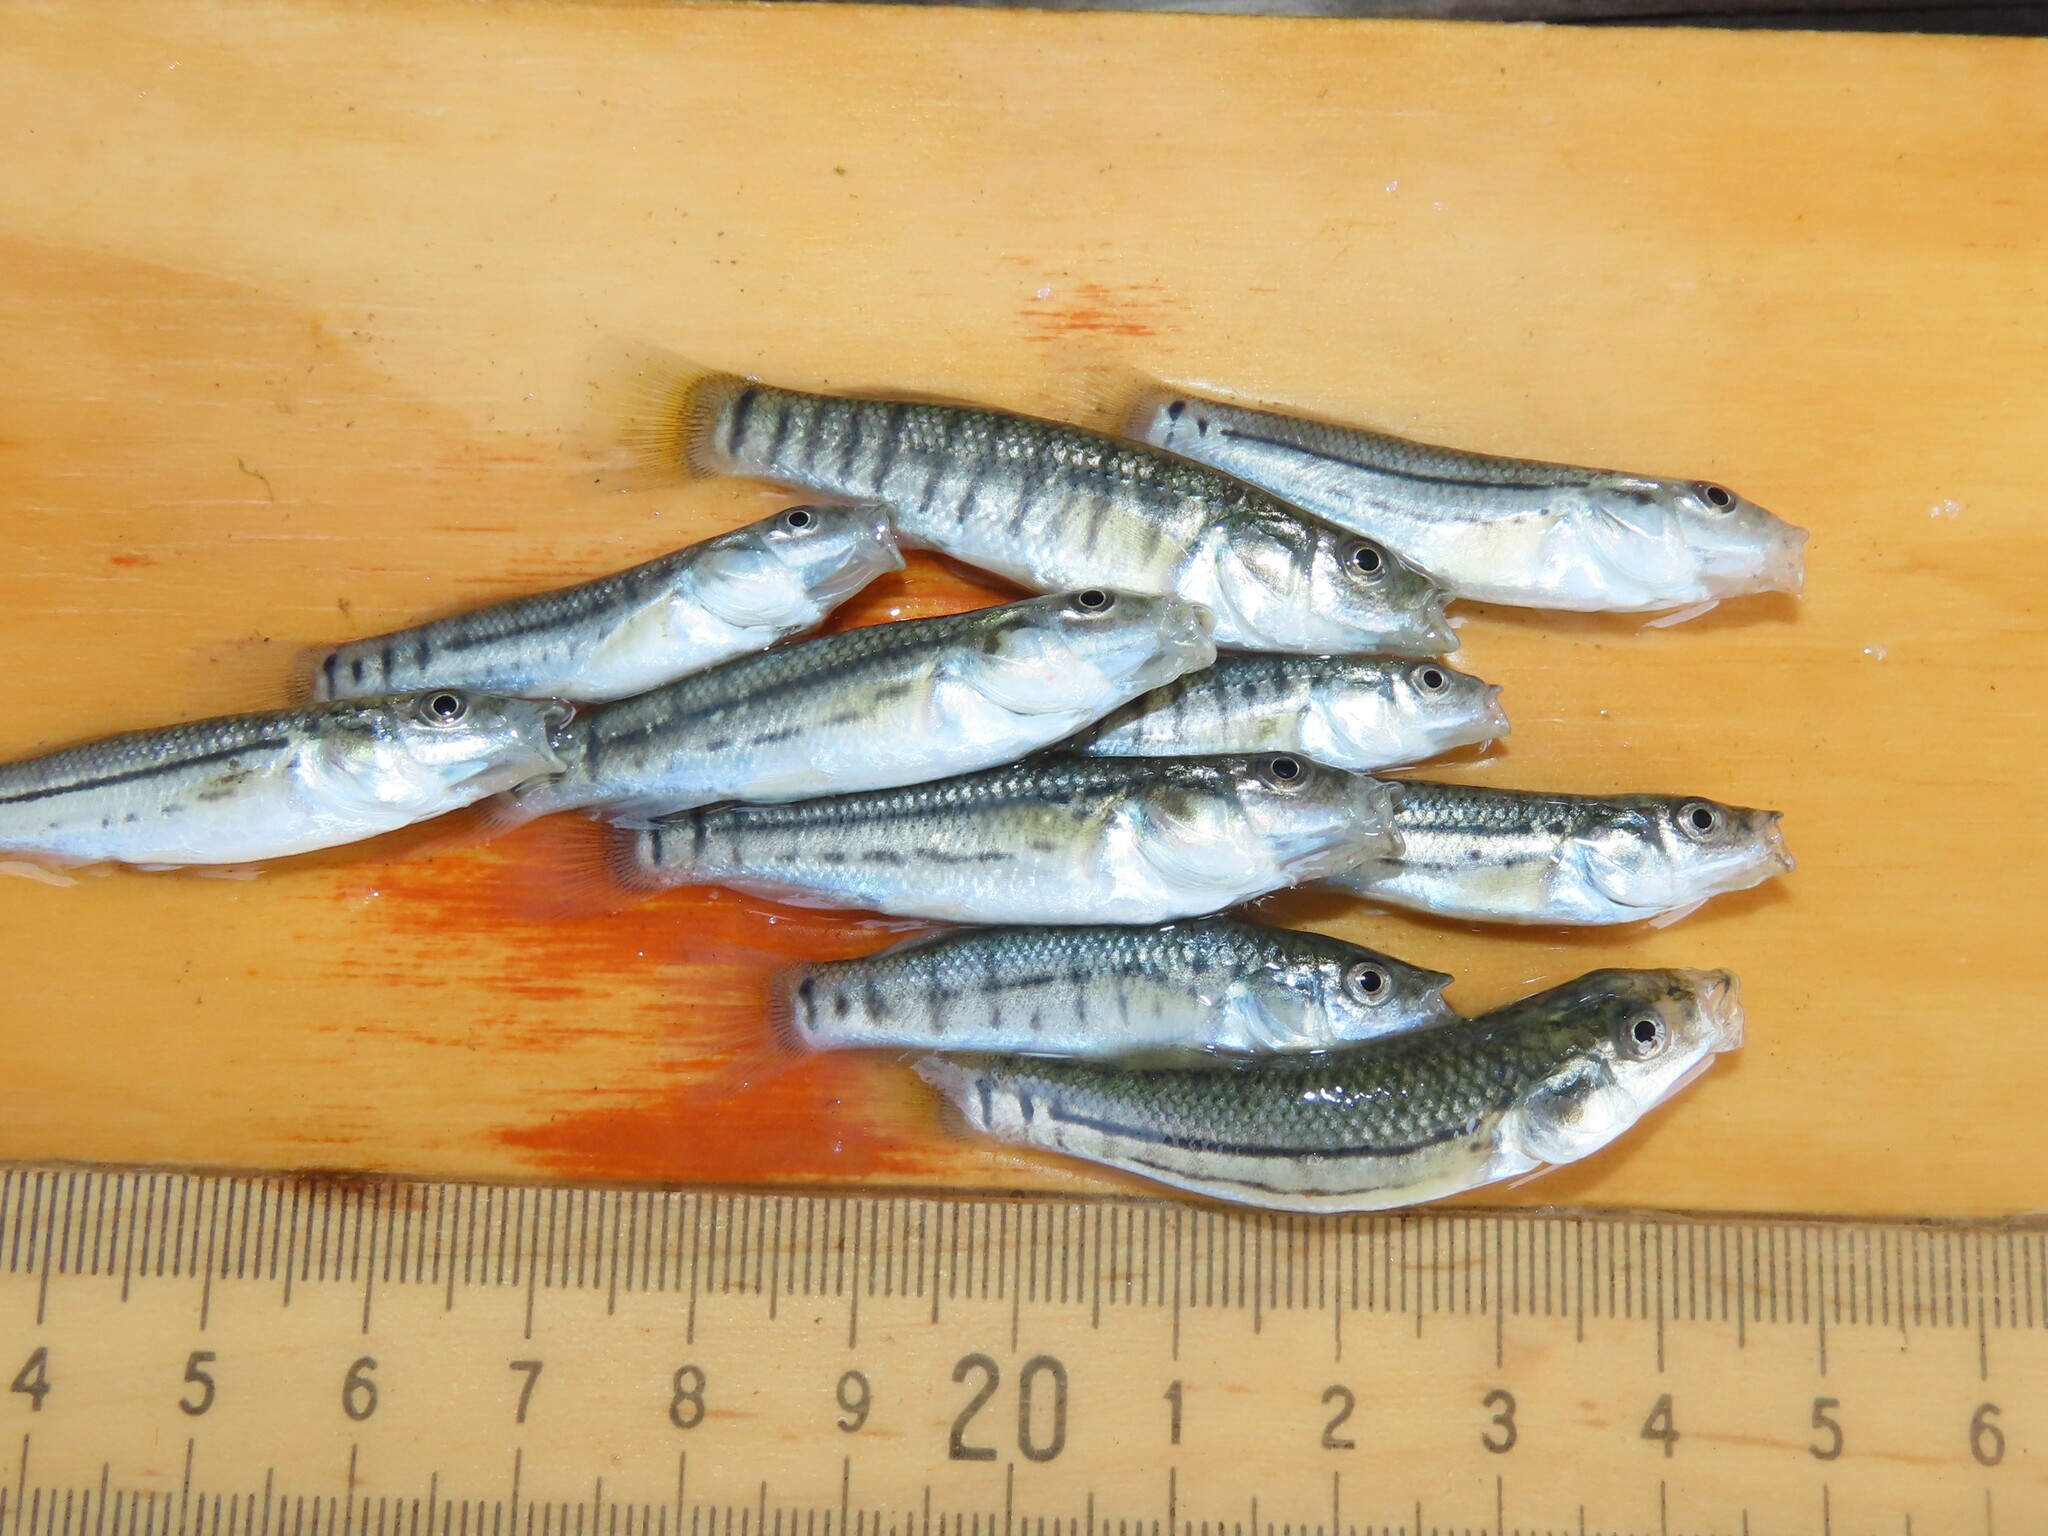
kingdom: Animalia
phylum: Chordata
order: Cyprinodontiformes
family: Fundulidae
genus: Fundulus
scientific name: Fundulus majalis
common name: Striped killifish
